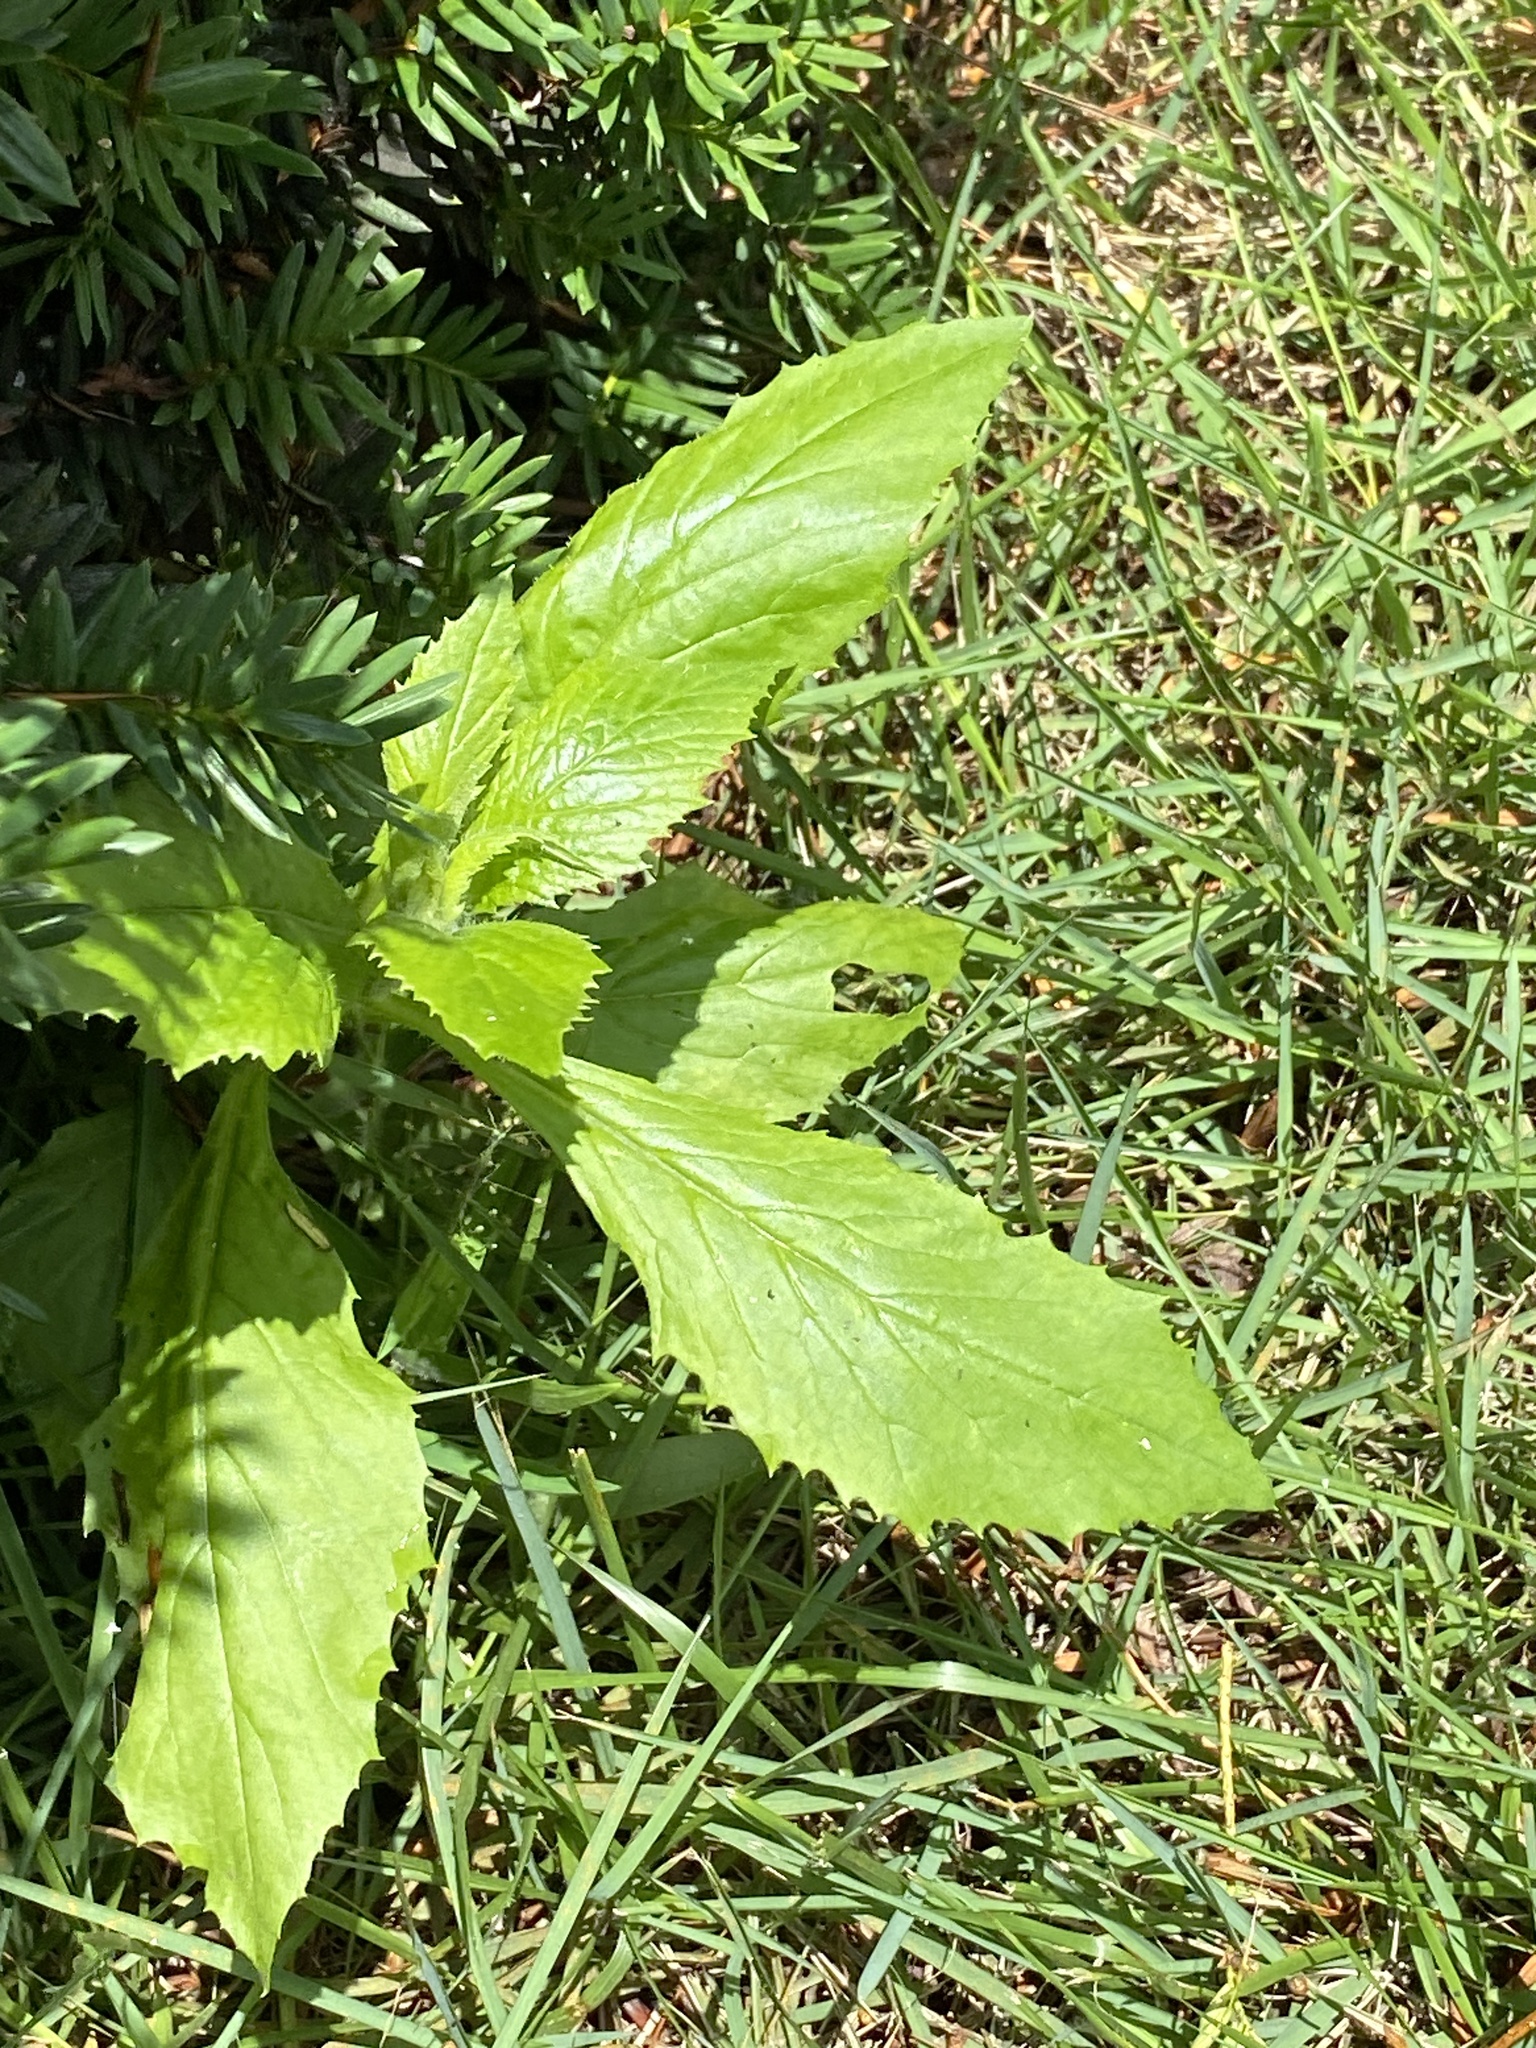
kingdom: Plantae
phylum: Tracheophyta
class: Magnoliopsida
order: Asterales
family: Asteraceae
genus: Erechtites
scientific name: Erechtites hieraciifolius
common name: American burnweed
